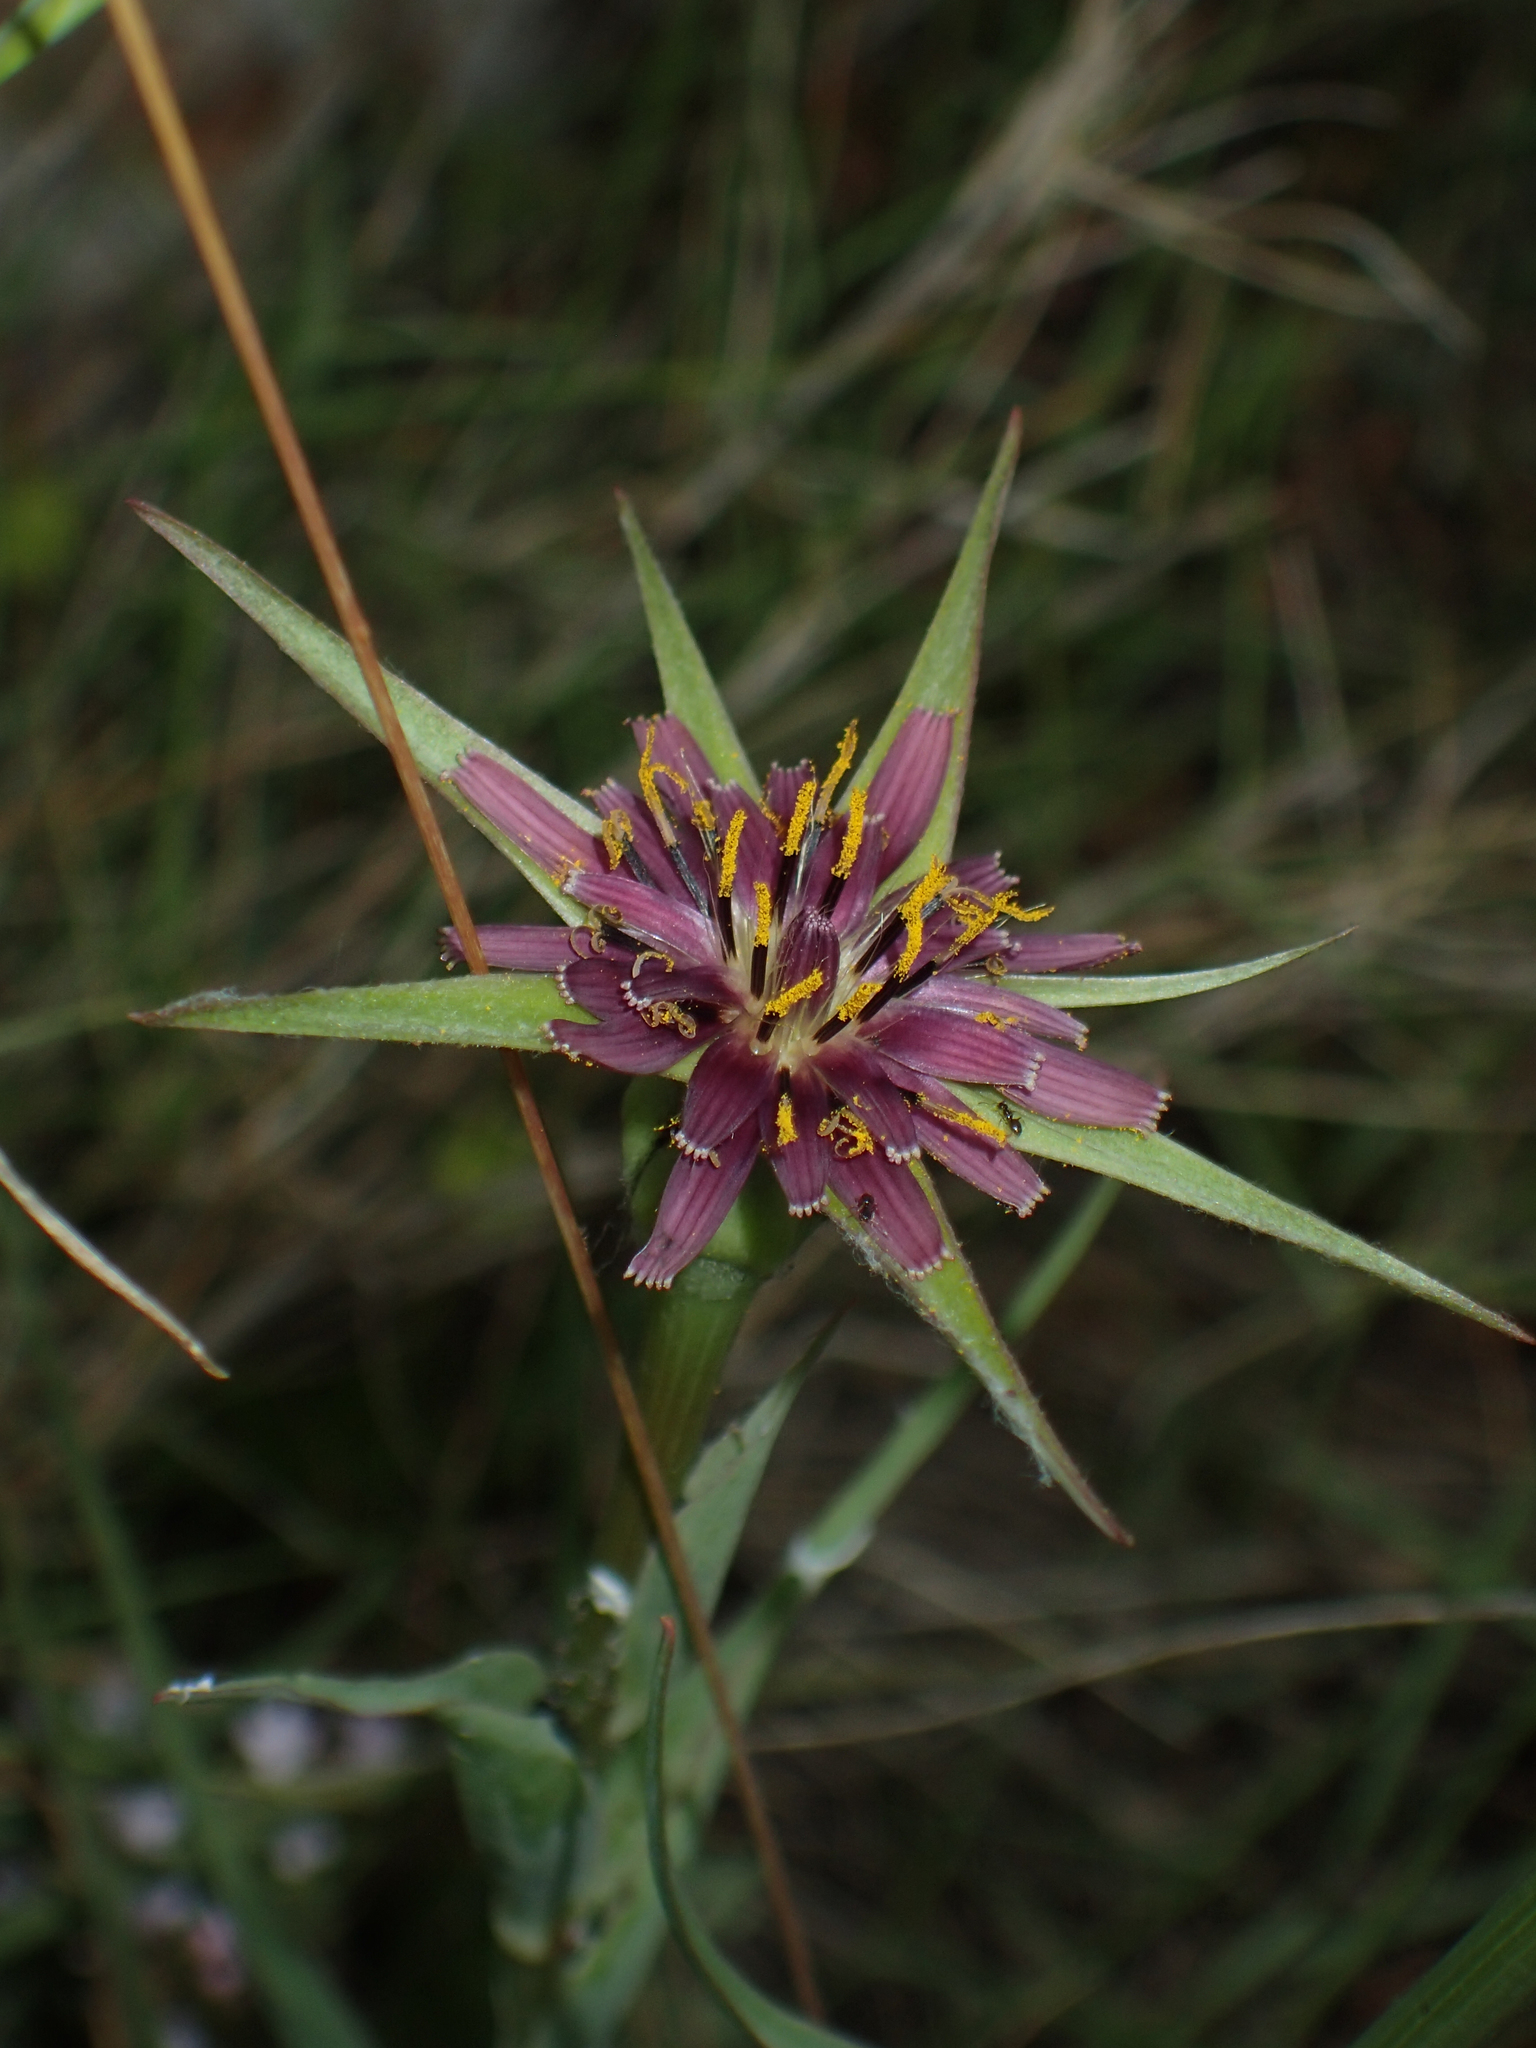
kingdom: Plantae
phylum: Tracheophyta
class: Magnoliopsida
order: Asterales
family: Asteraceae
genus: Tragopogon
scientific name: Tragopogon porrifolius
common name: Salsify
